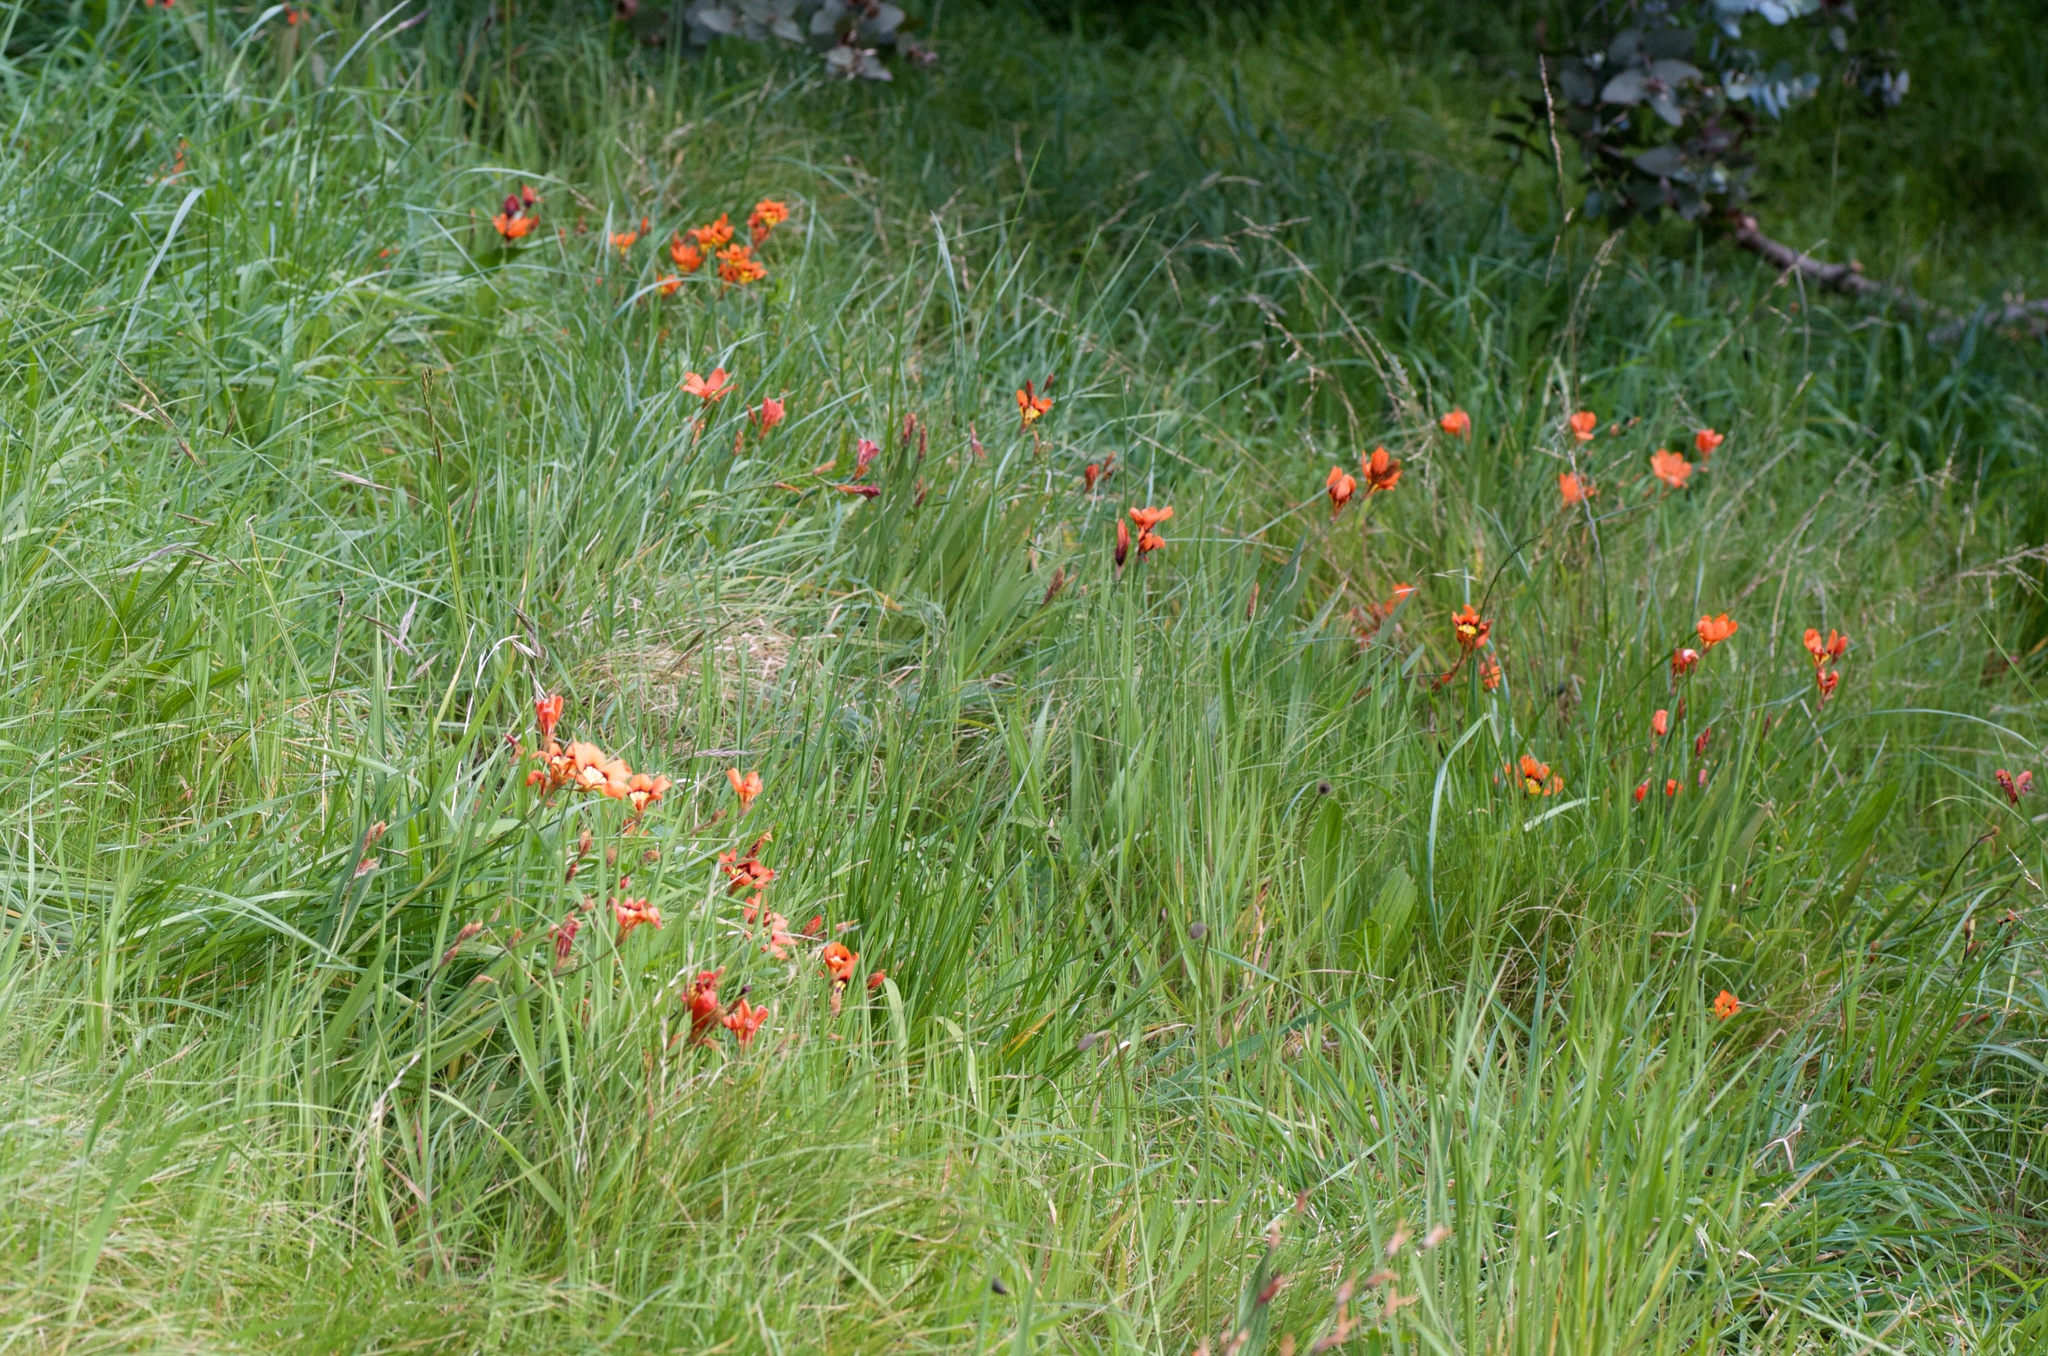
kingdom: Plantae
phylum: Tracheophyta
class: Liliopsida
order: Asparagales
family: Iridaceae
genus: Sparaxis
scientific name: Sparaxis tricolor
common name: Wandflower
